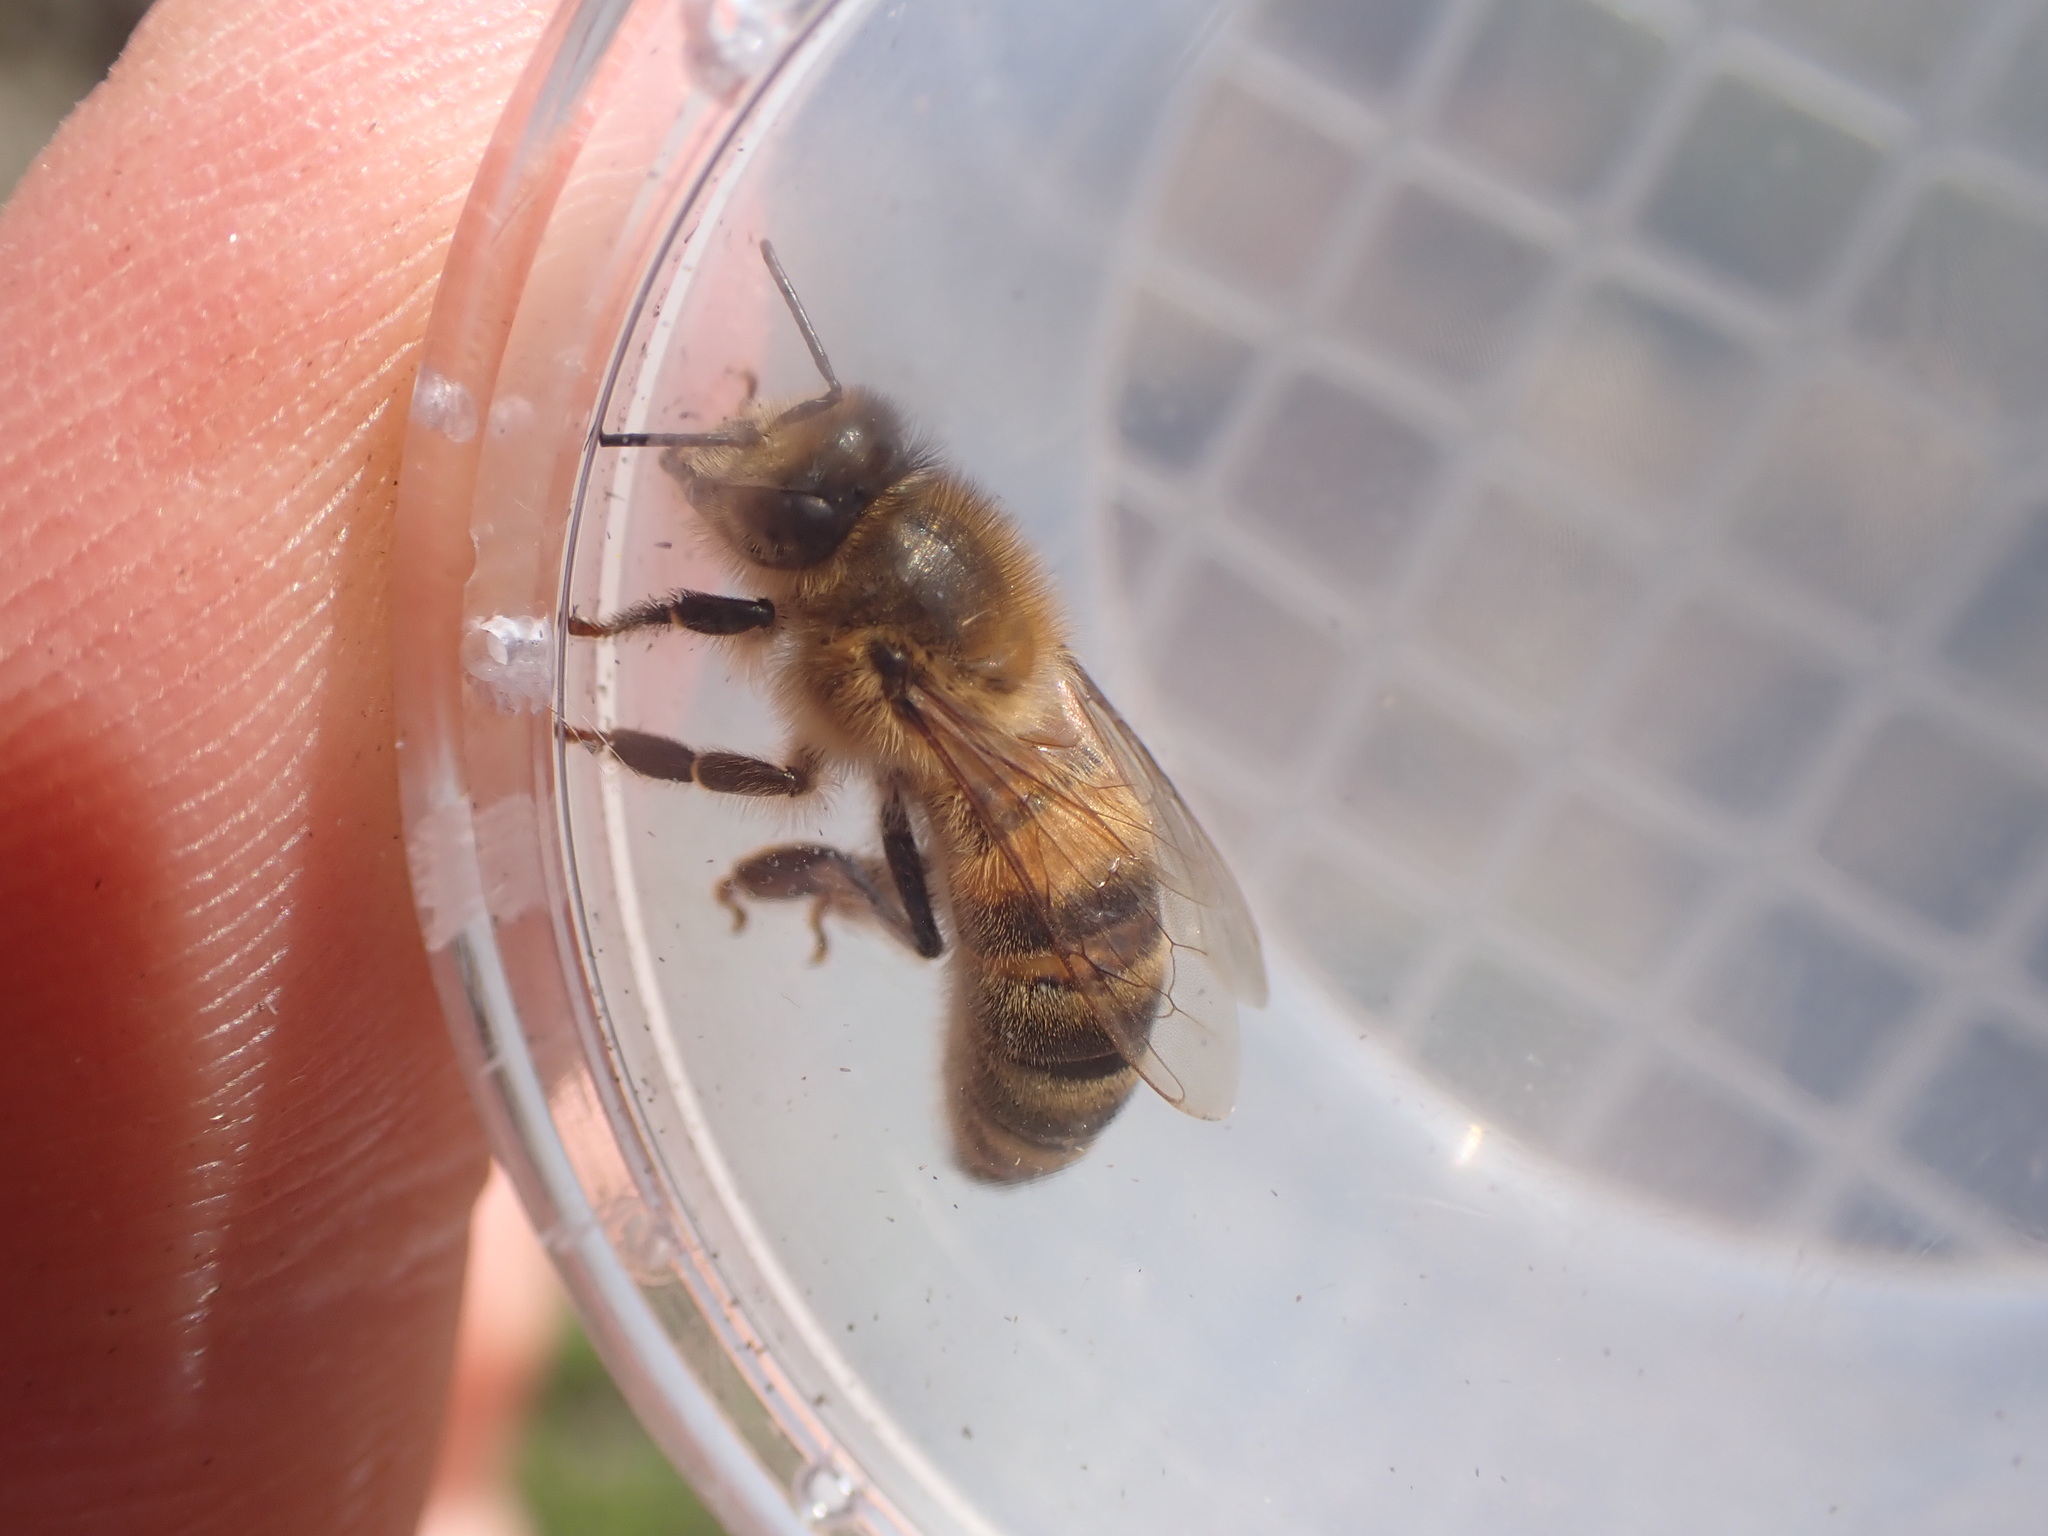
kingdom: Animalia
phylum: Arthropoda
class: Insecta
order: Hymenoptera
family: Apidae
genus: Apis
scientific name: Apis mellifera
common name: Honey bee
